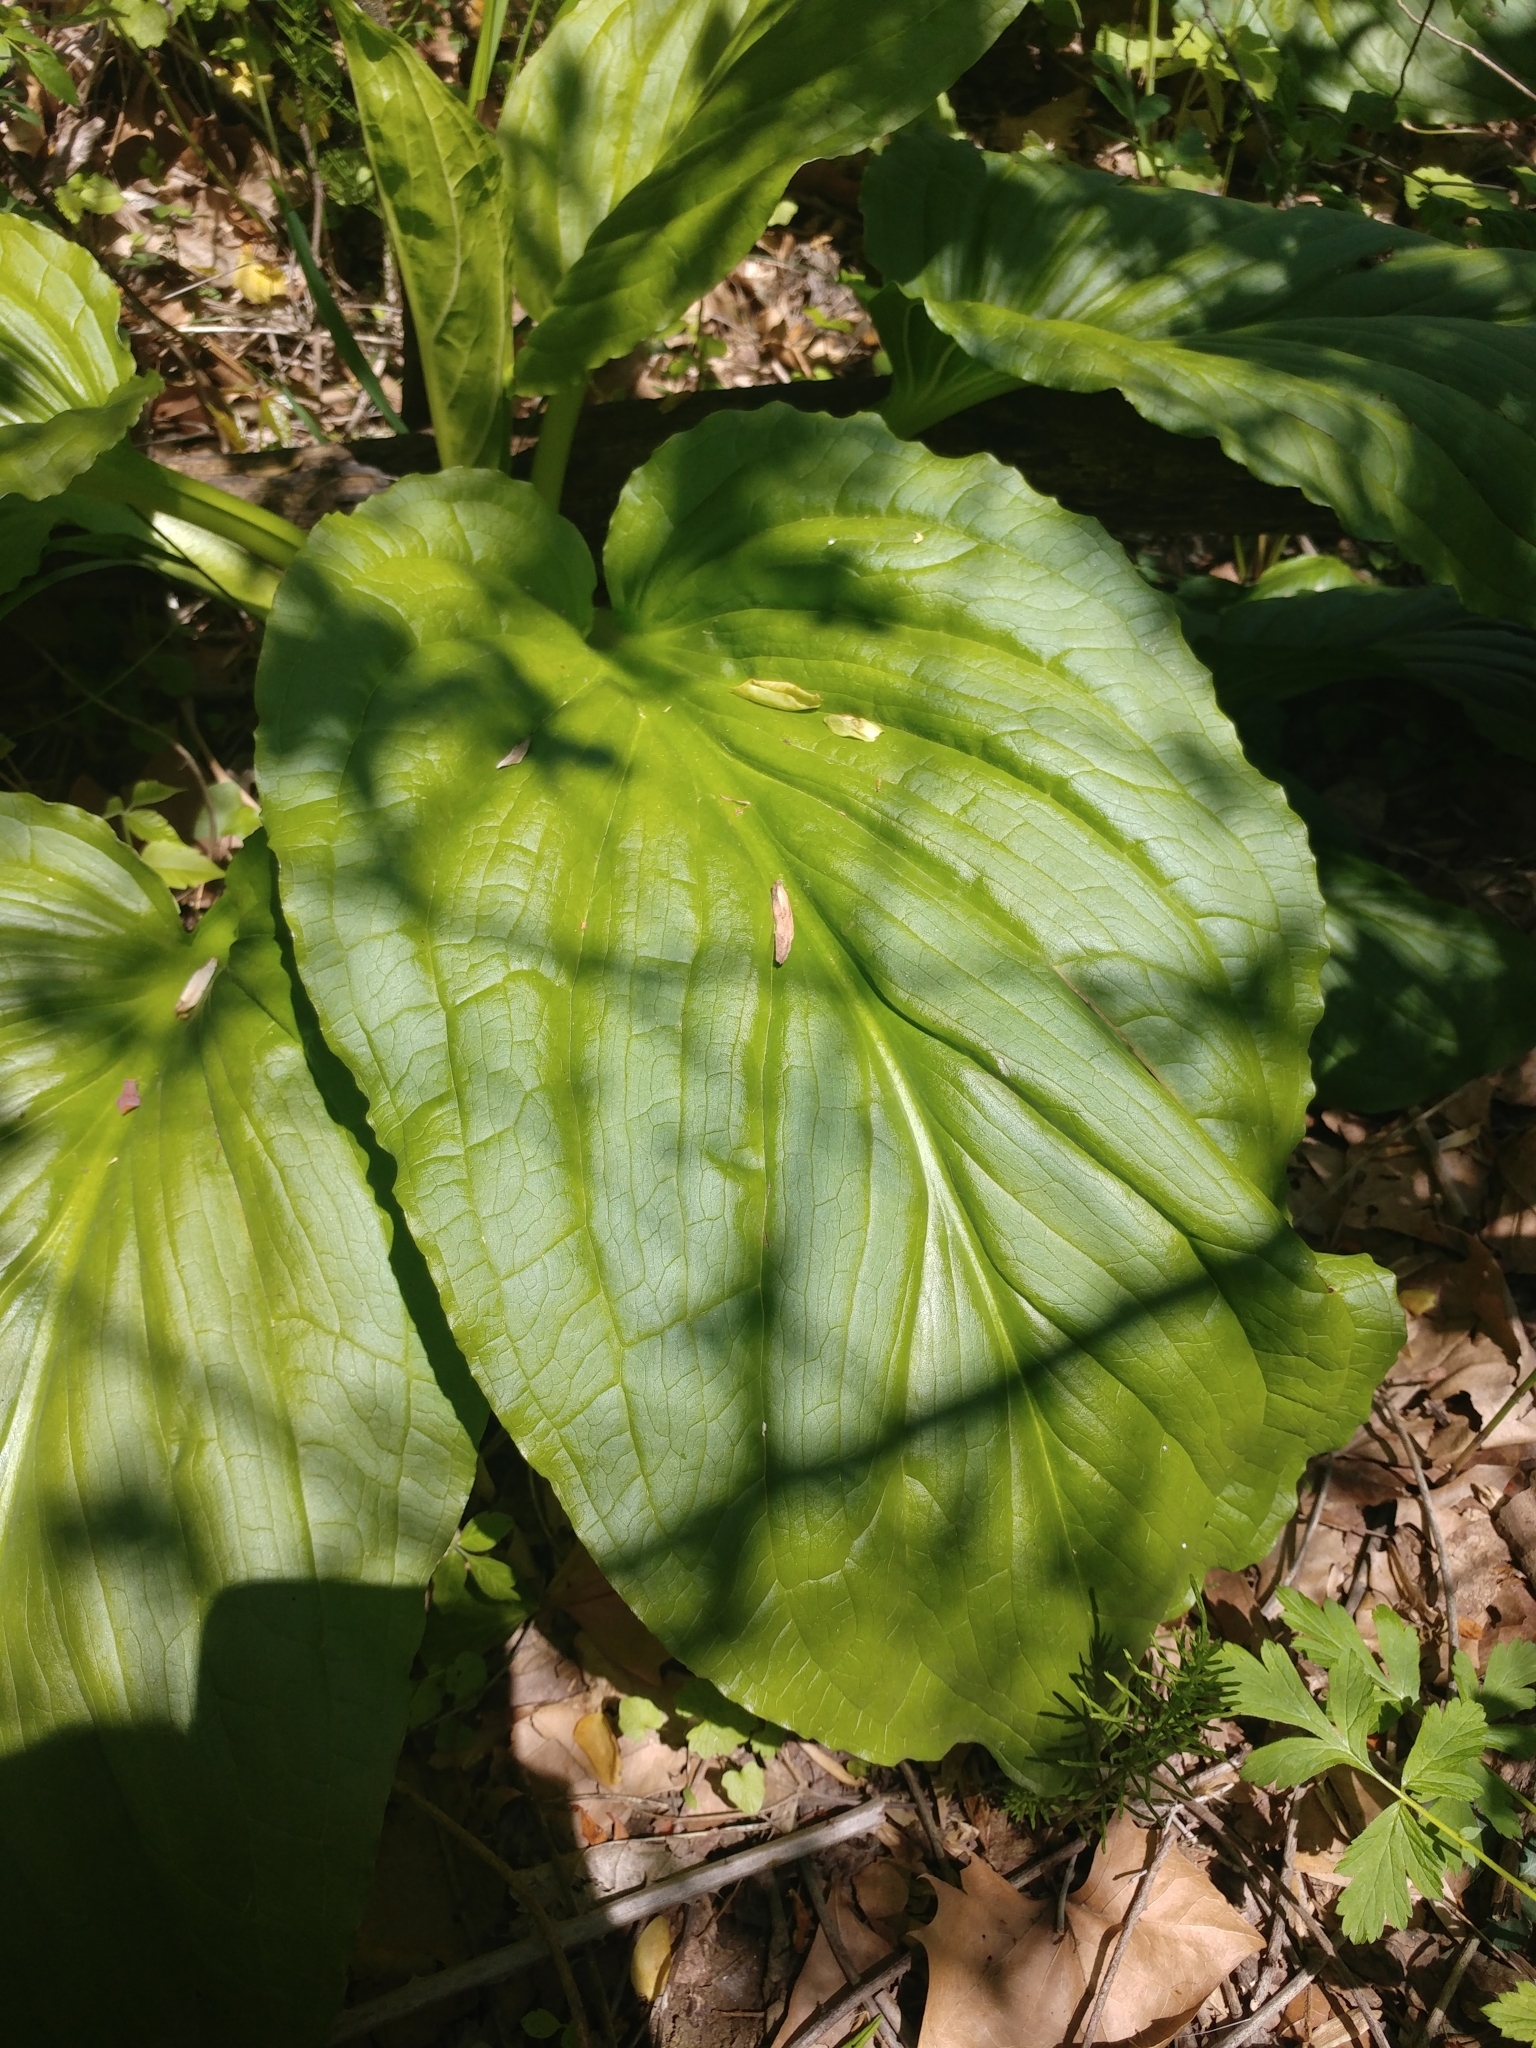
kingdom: Plantae
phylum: Tracheophyta
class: Liliopsida
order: Alismatales
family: Araceae
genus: Symplocarpus
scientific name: Symplocarpus foetidus
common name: Eastern skunk cabbage
